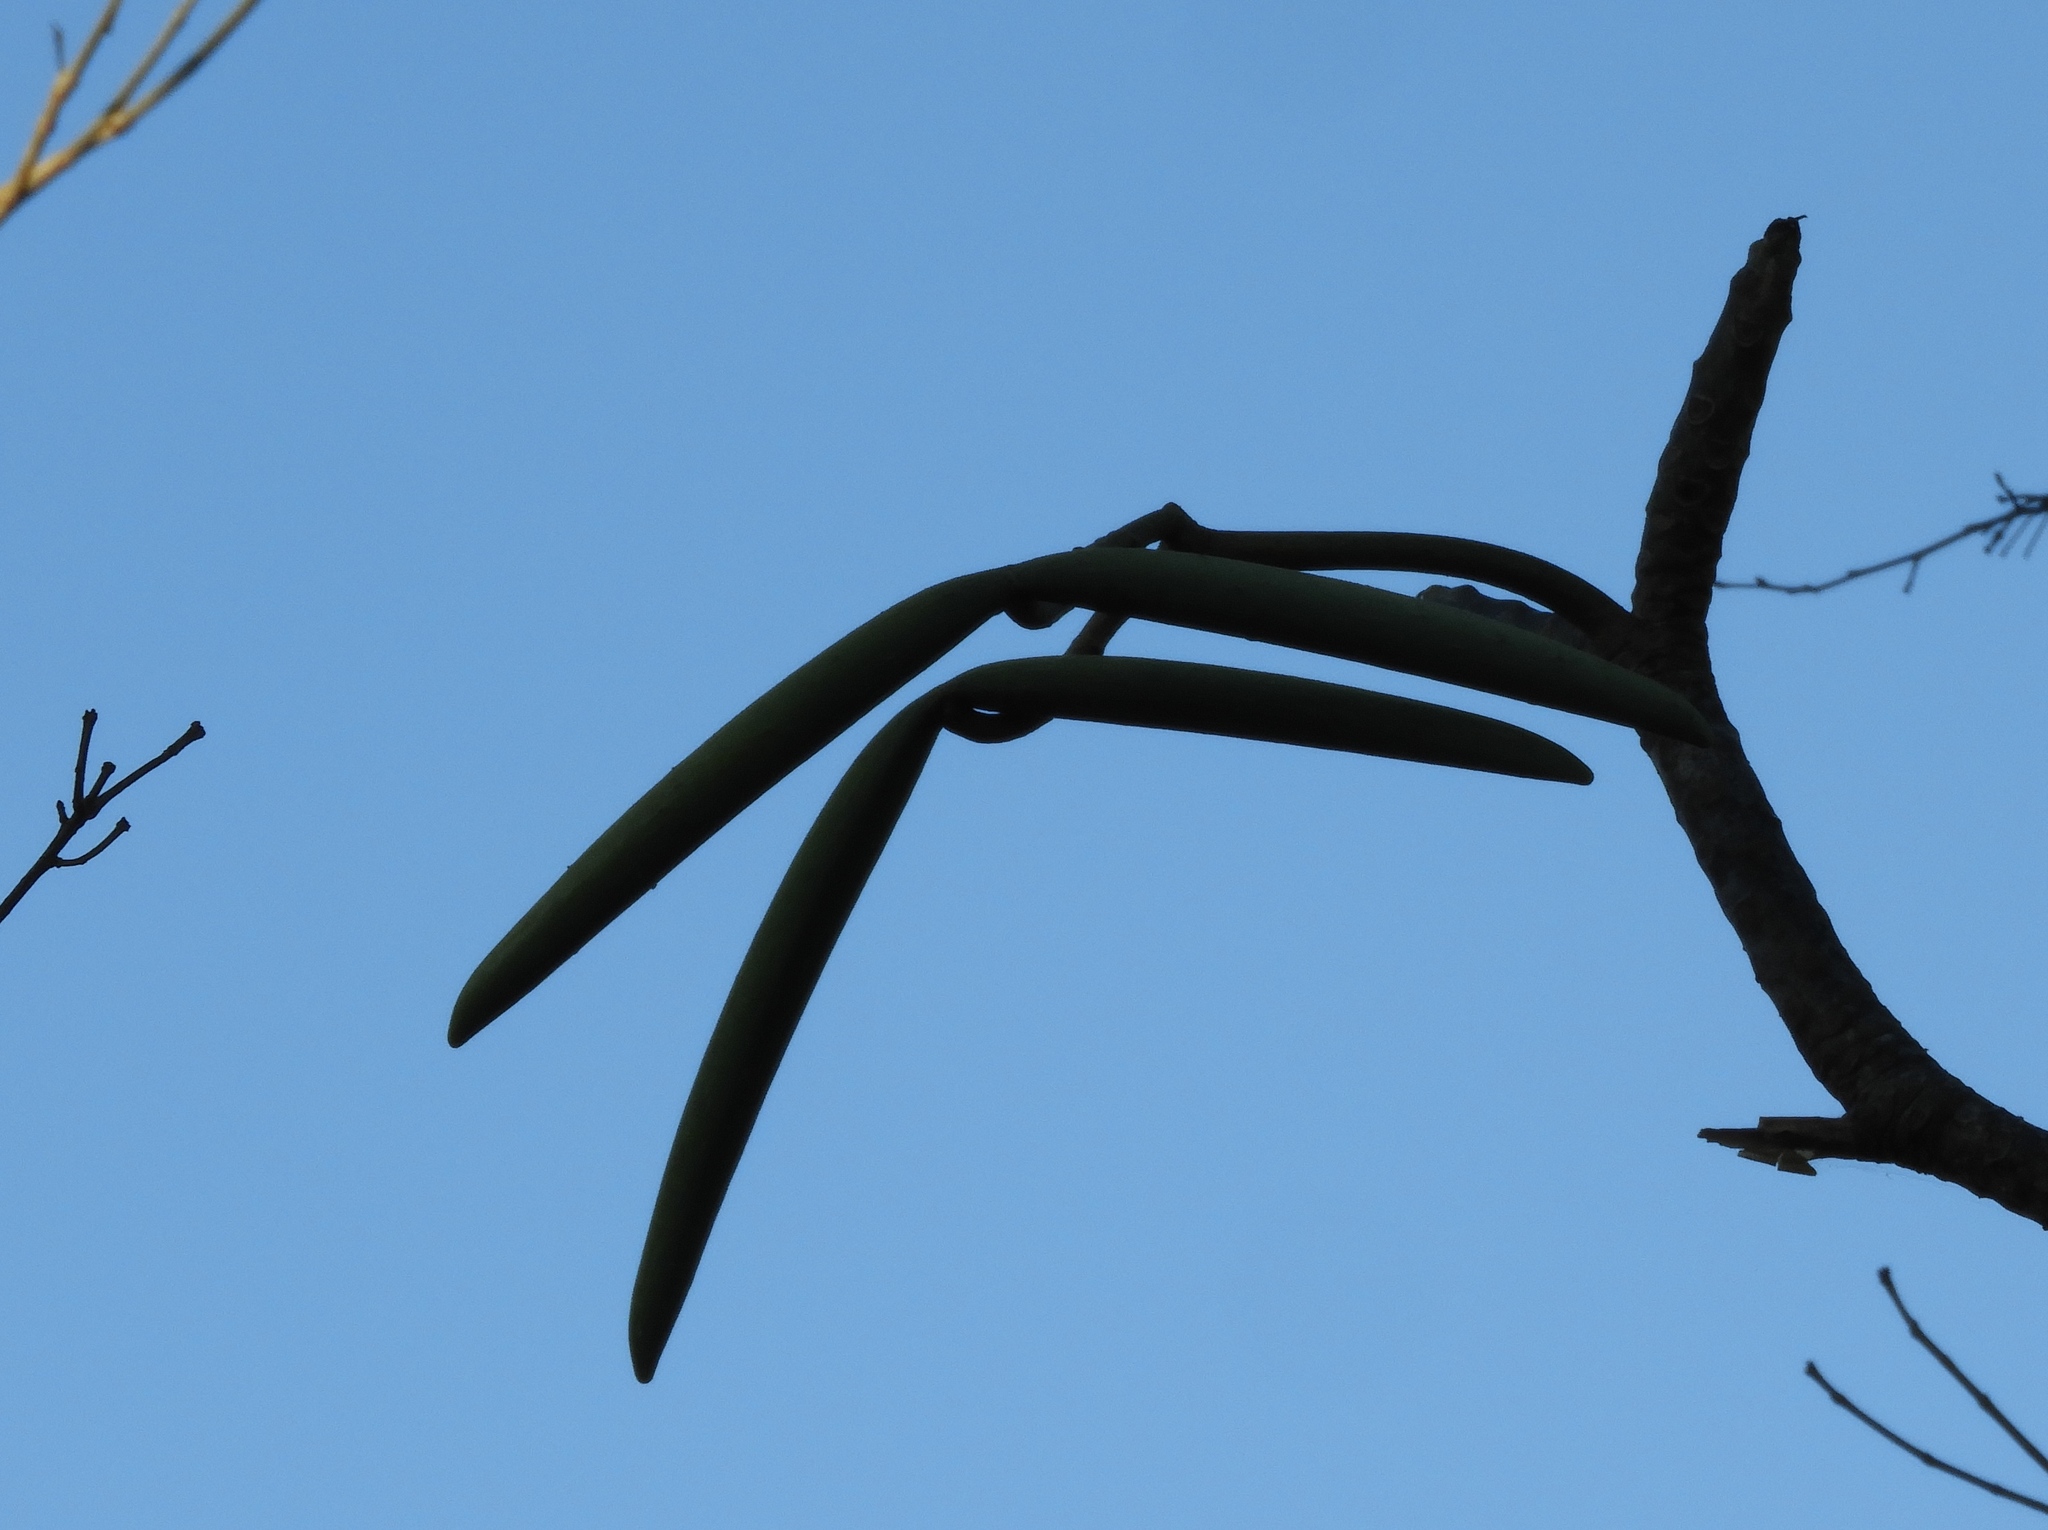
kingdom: Plantae
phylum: Tracheophyta
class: Magnoliopsida
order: Gentianales
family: Apocynaceae
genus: Plumeria
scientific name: Plumeria rubra
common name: Pagoda-tree
